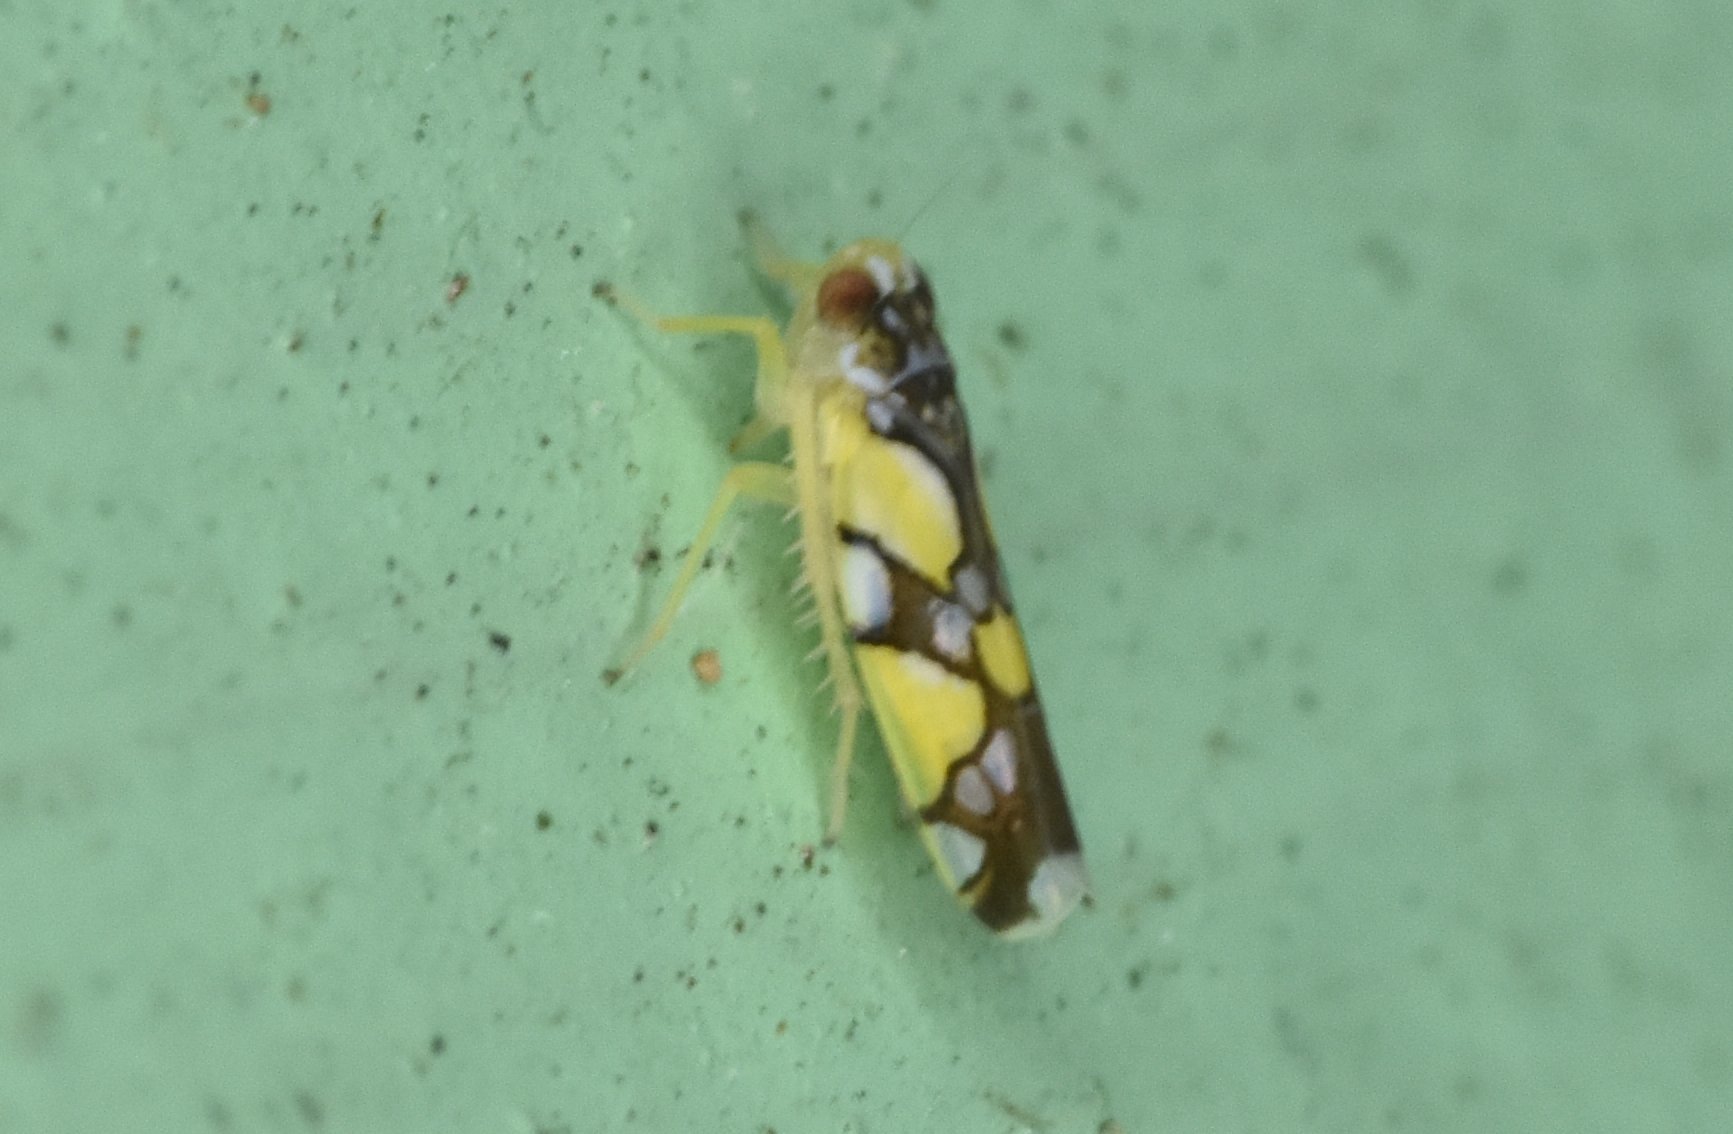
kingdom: Animalia
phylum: Arthropoda
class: Insecta
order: Hemiptera
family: Cicadellidae
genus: Protalebrella
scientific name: Protalebrella brasiliensis
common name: Brasilian leafhopper
